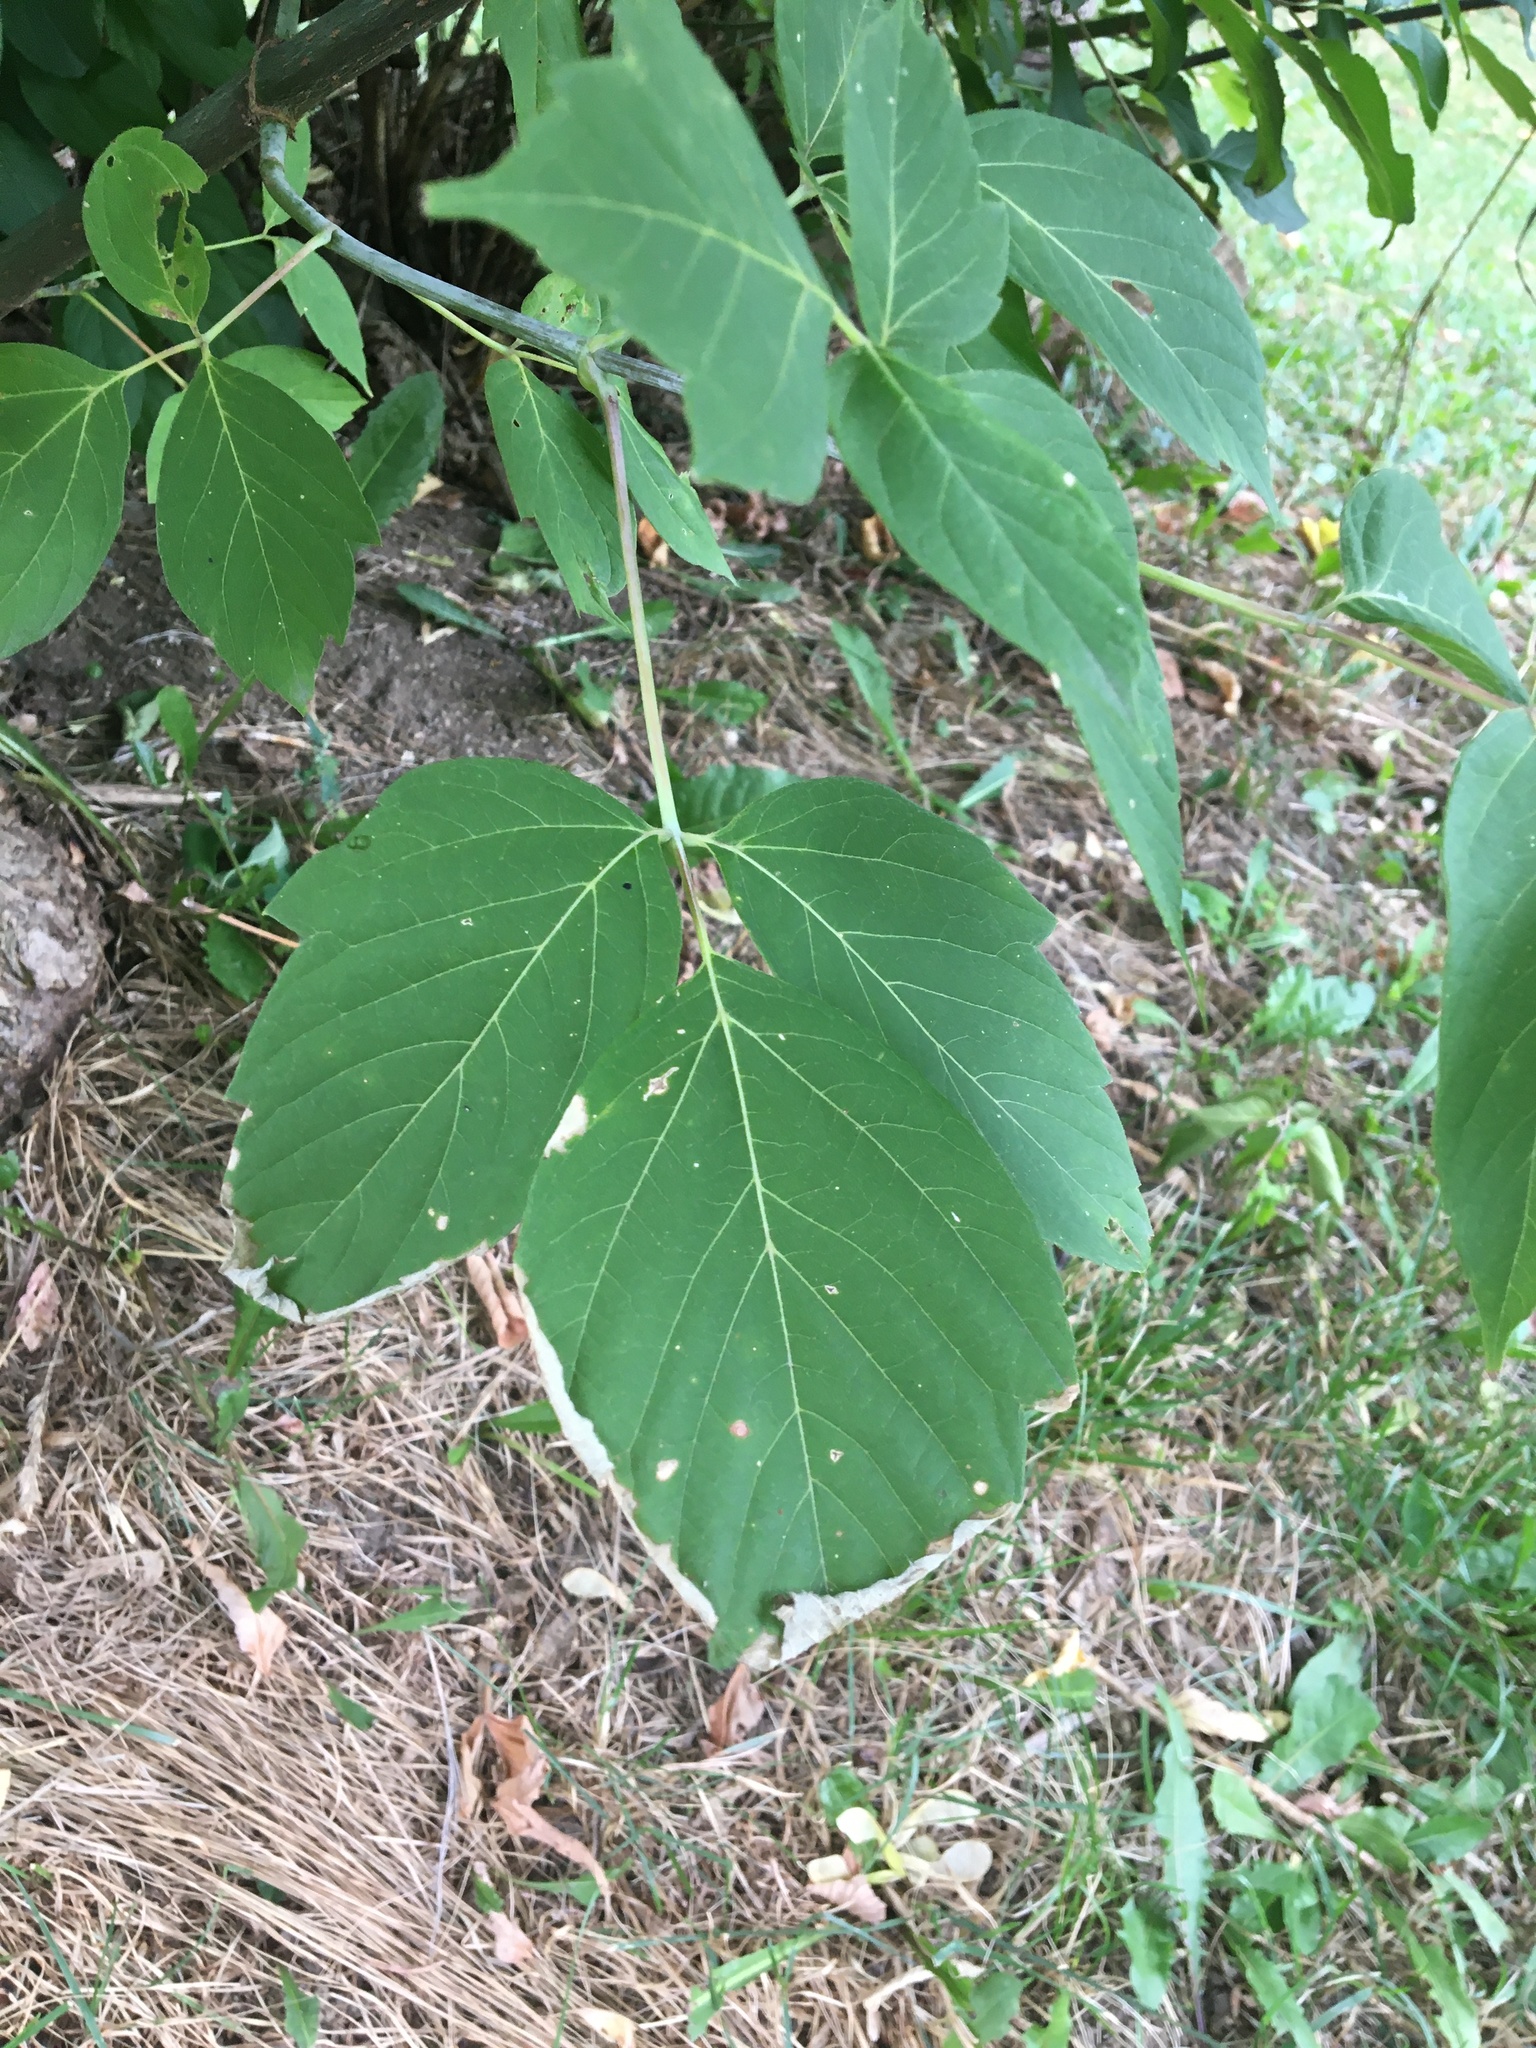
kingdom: Plantae
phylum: Tracheophyta
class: Magnoliopsida
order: Sapindales
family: Sapindaceae
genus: Acer
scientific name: Acer negundo
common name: Ashleaf maple
